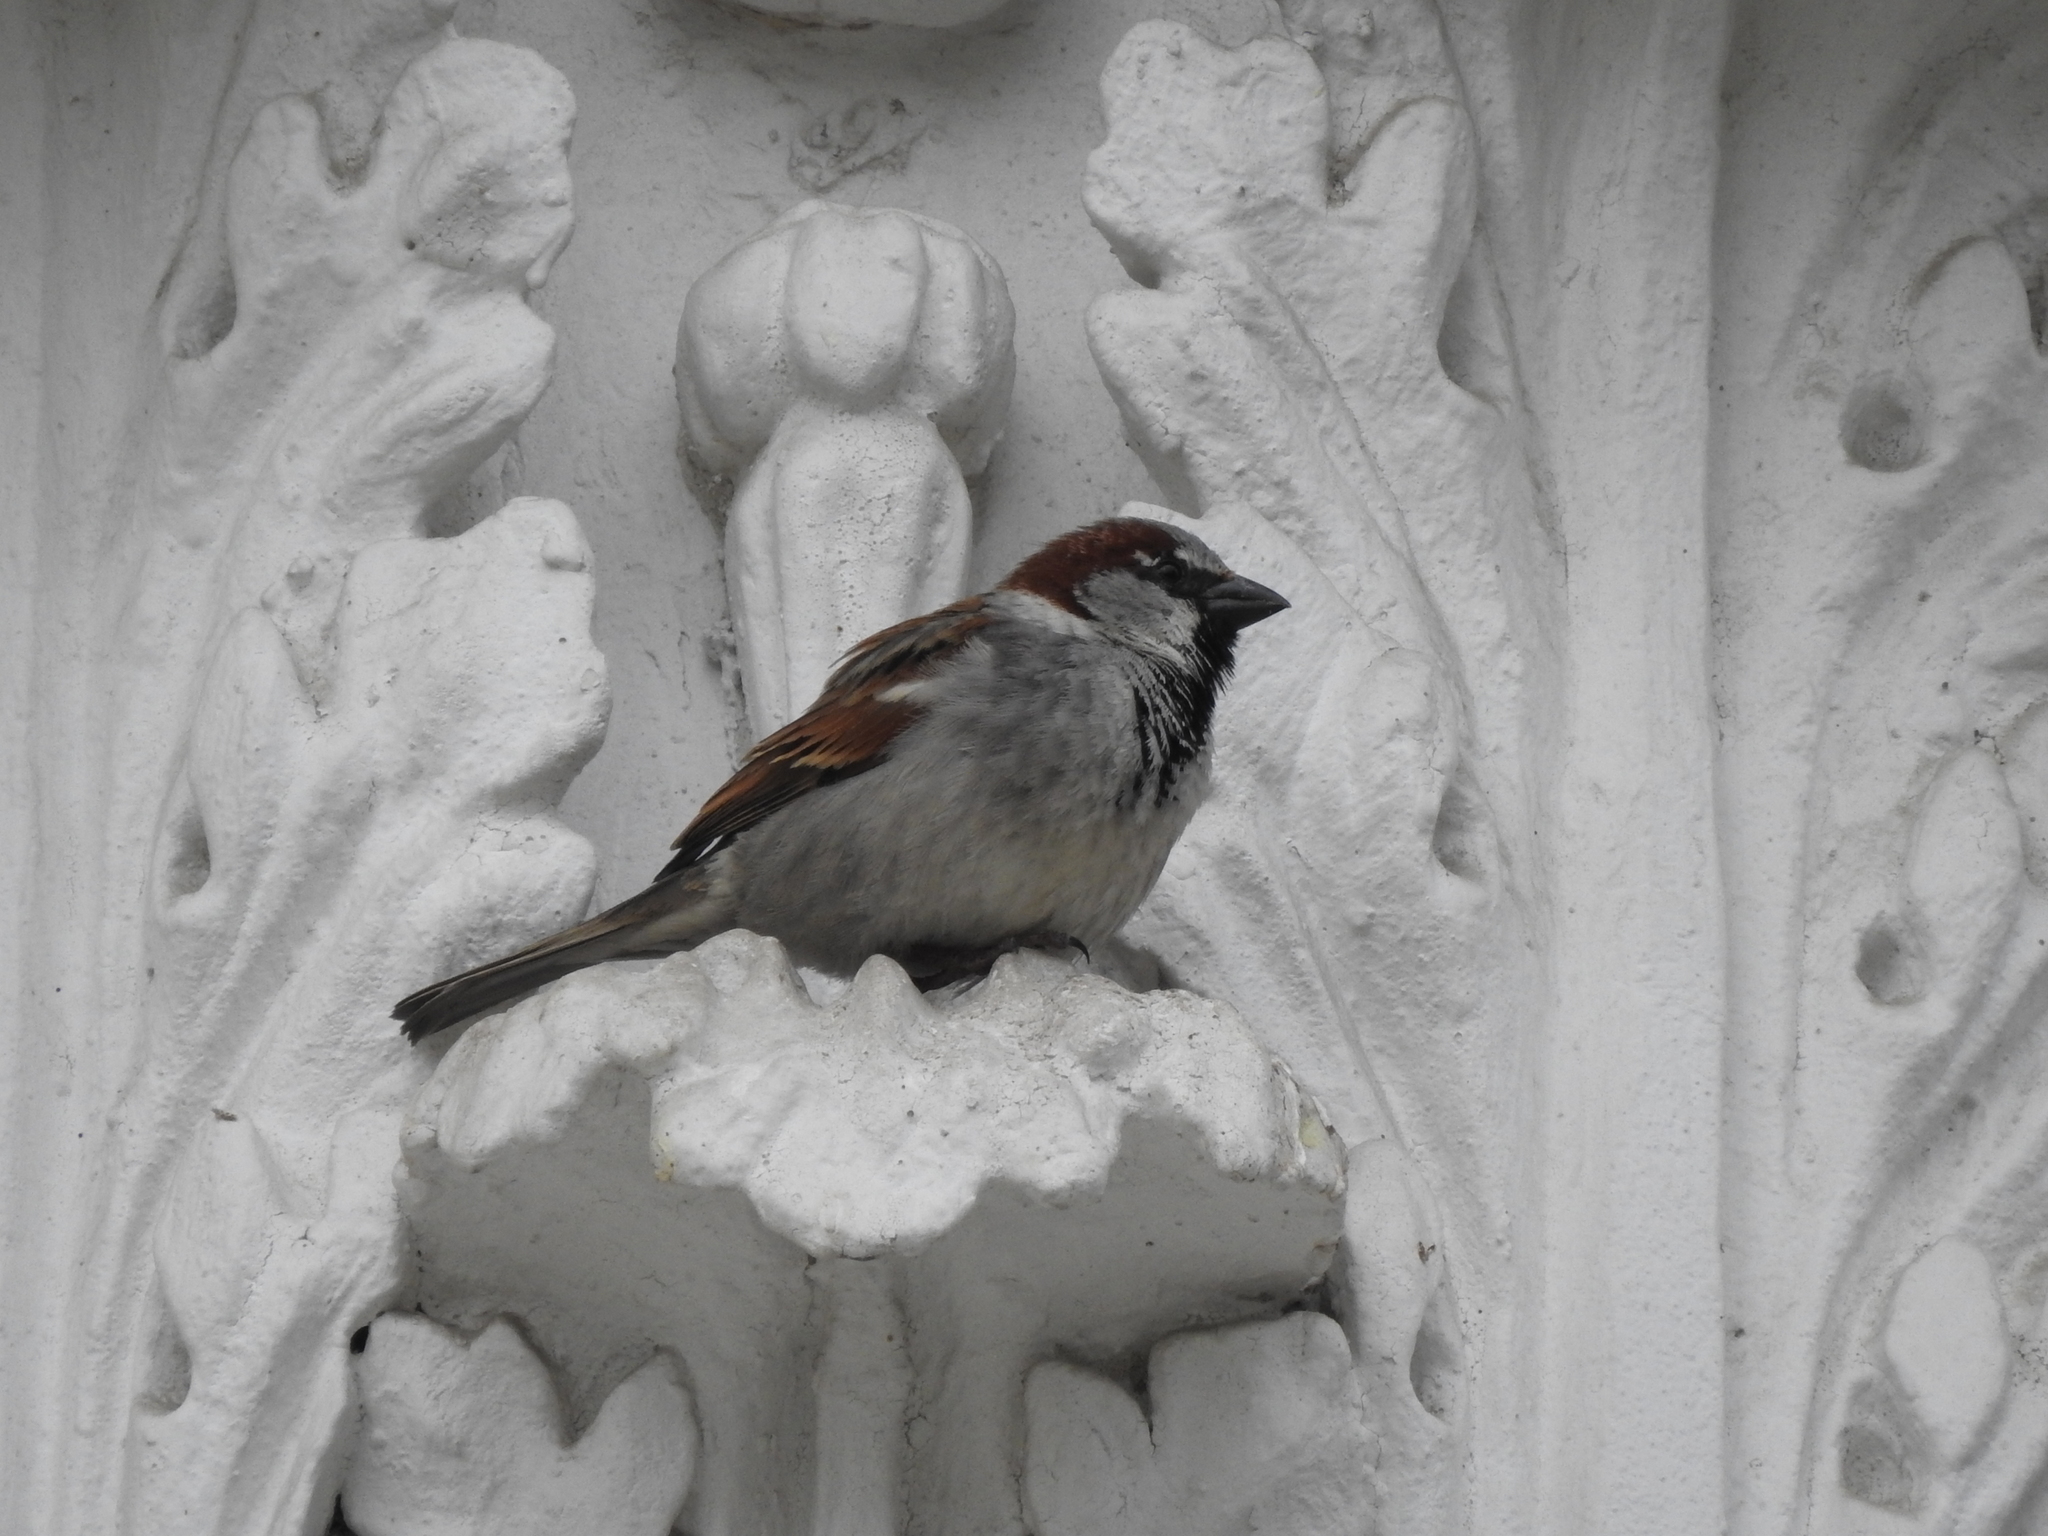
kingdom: Animalia
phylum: Chordata
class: Aves
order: Passeriformes
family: Passeridae
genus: Passer
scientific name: Passer domesticus
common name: House sparrow
